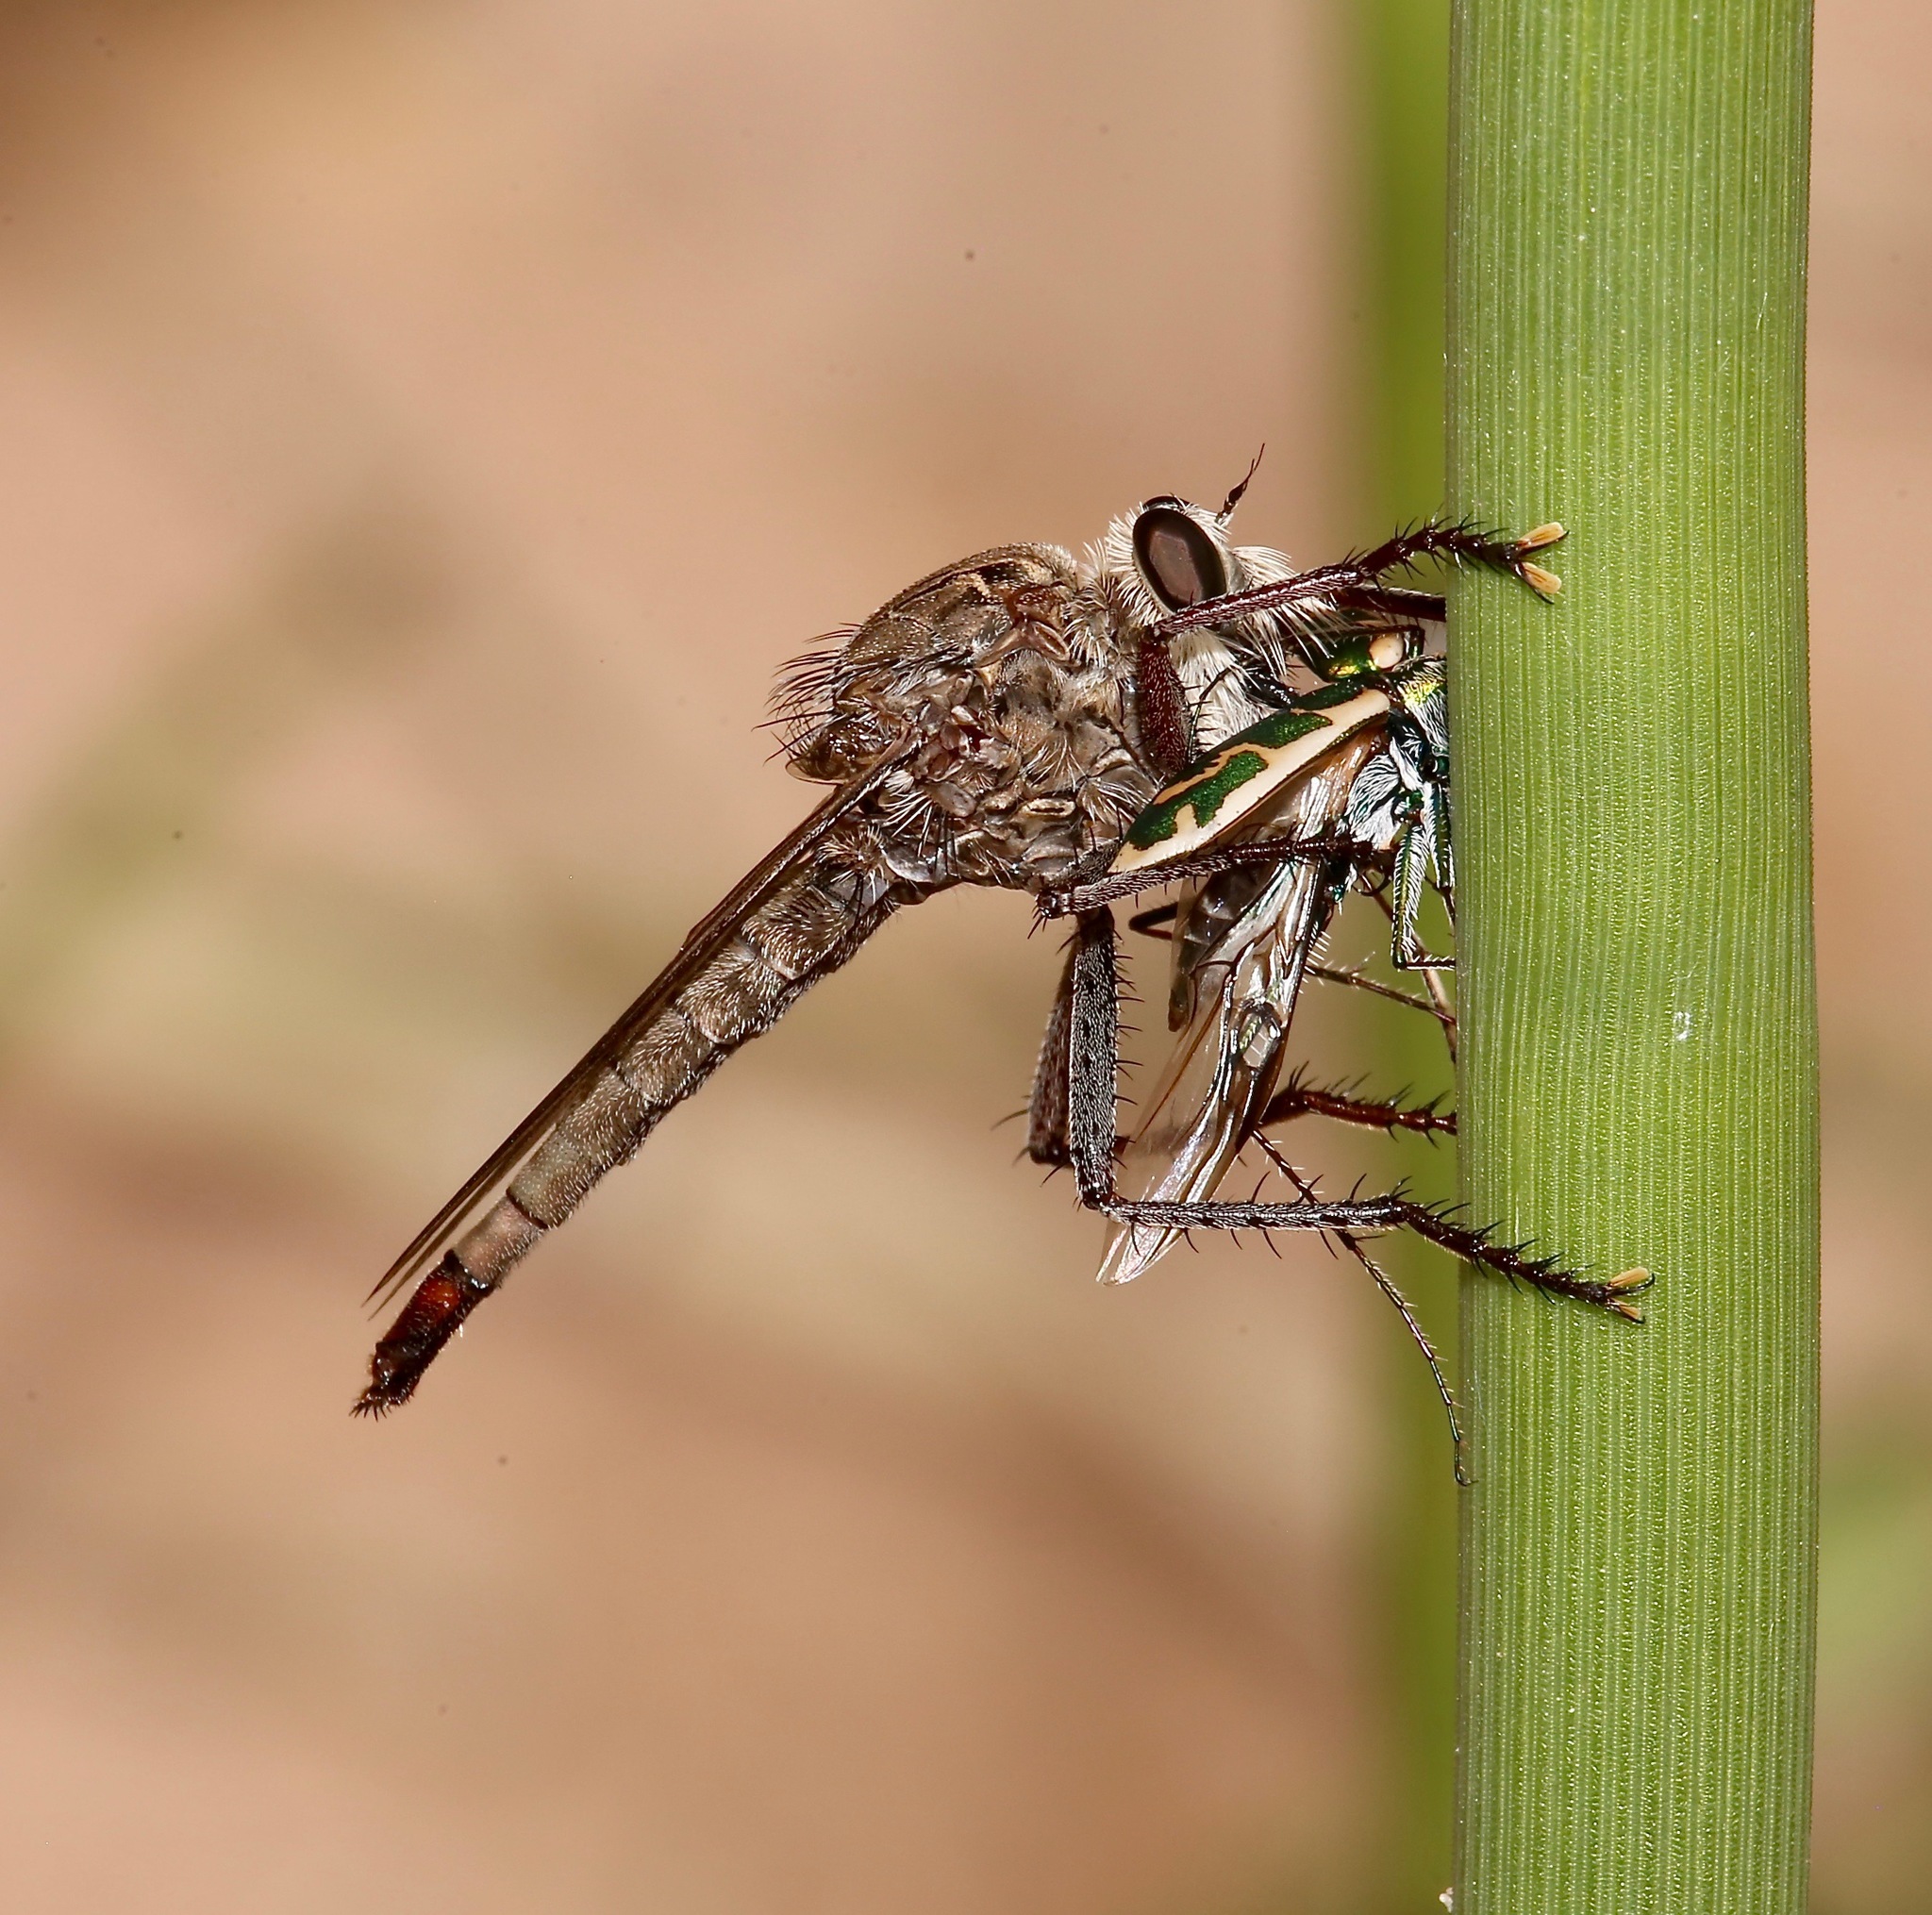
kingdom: Animalia
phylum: Arthropoda
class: Insecta
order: Coleoptera
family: Carabidae
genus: Ellipsoptera
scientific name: Ellipsoptera rubicunda
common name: Aridland tiger beetle
